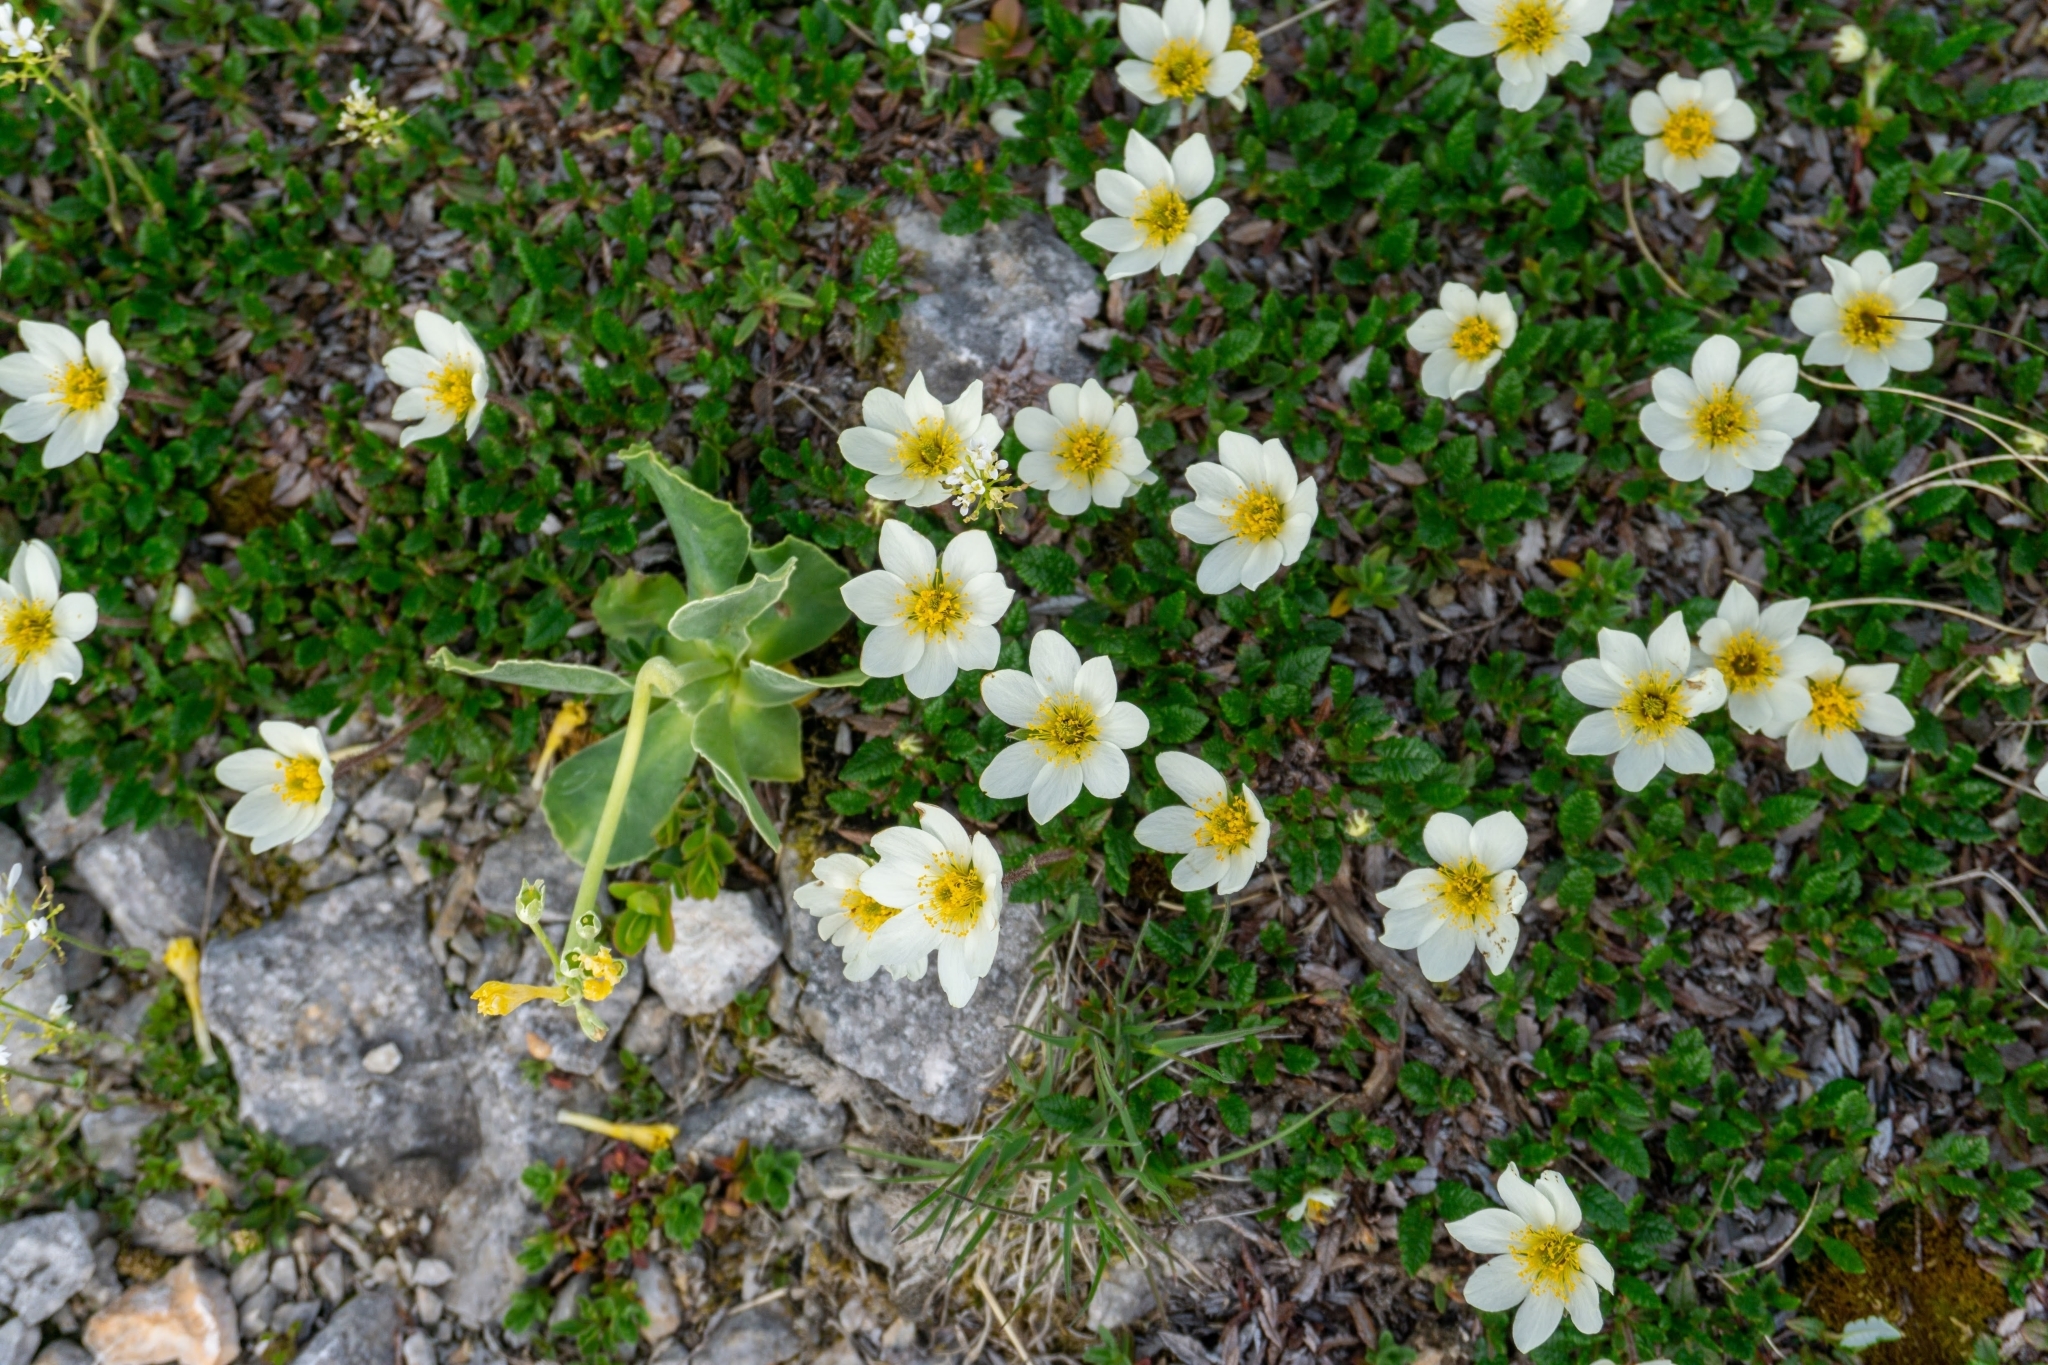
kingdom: Plantae
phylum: Tracheophyta
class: Magnoliopsida
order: Rosales
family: Rosaceae
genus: Dryas
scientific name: Dryas octopetala
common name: Eight-petal mountain-avens
